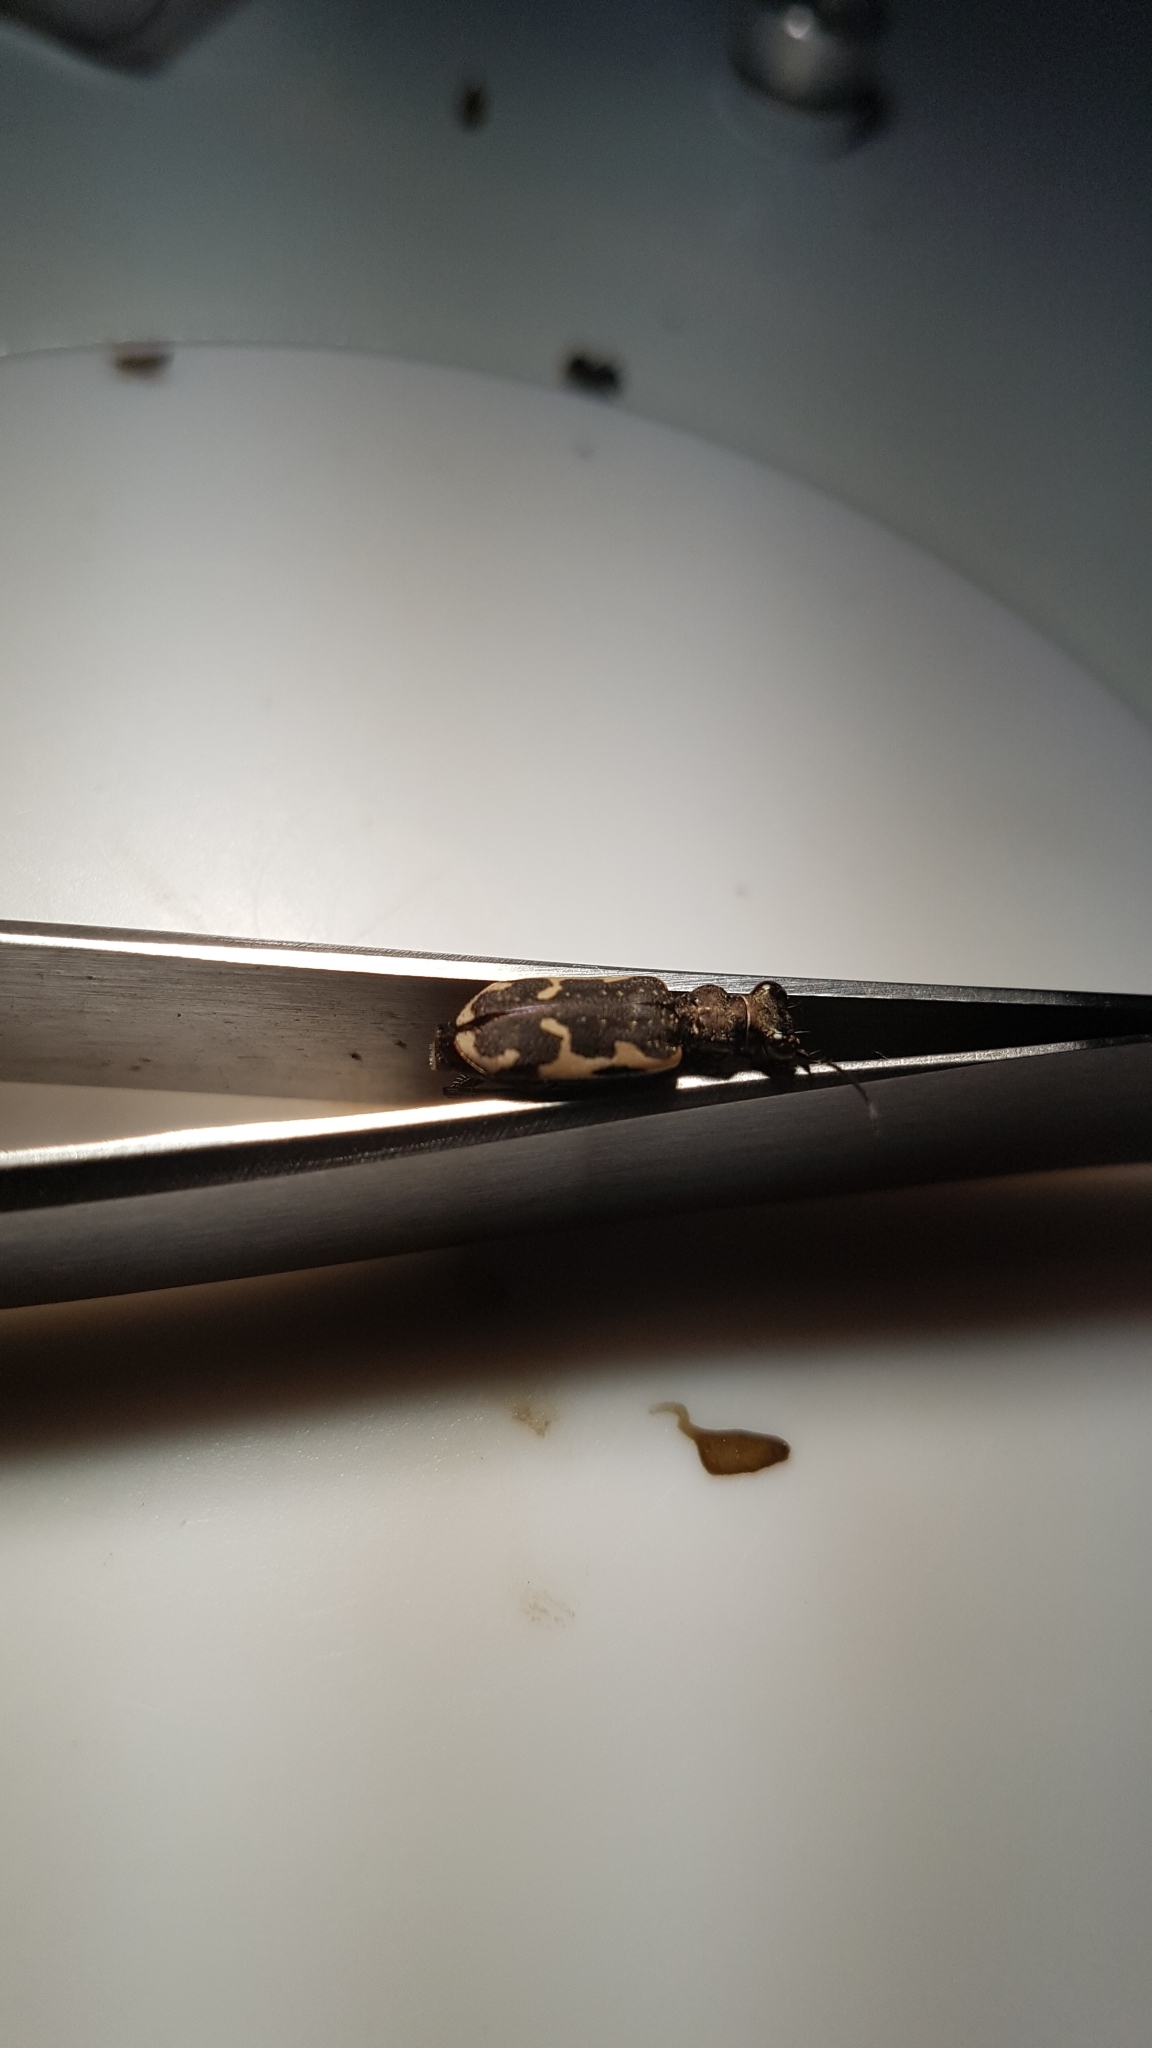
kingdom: Animalia
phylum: Arthropoda
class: Insecta
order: Coleoptera
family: Carabidae
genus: Neocicindela
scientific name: Neocicindela tuberculata
